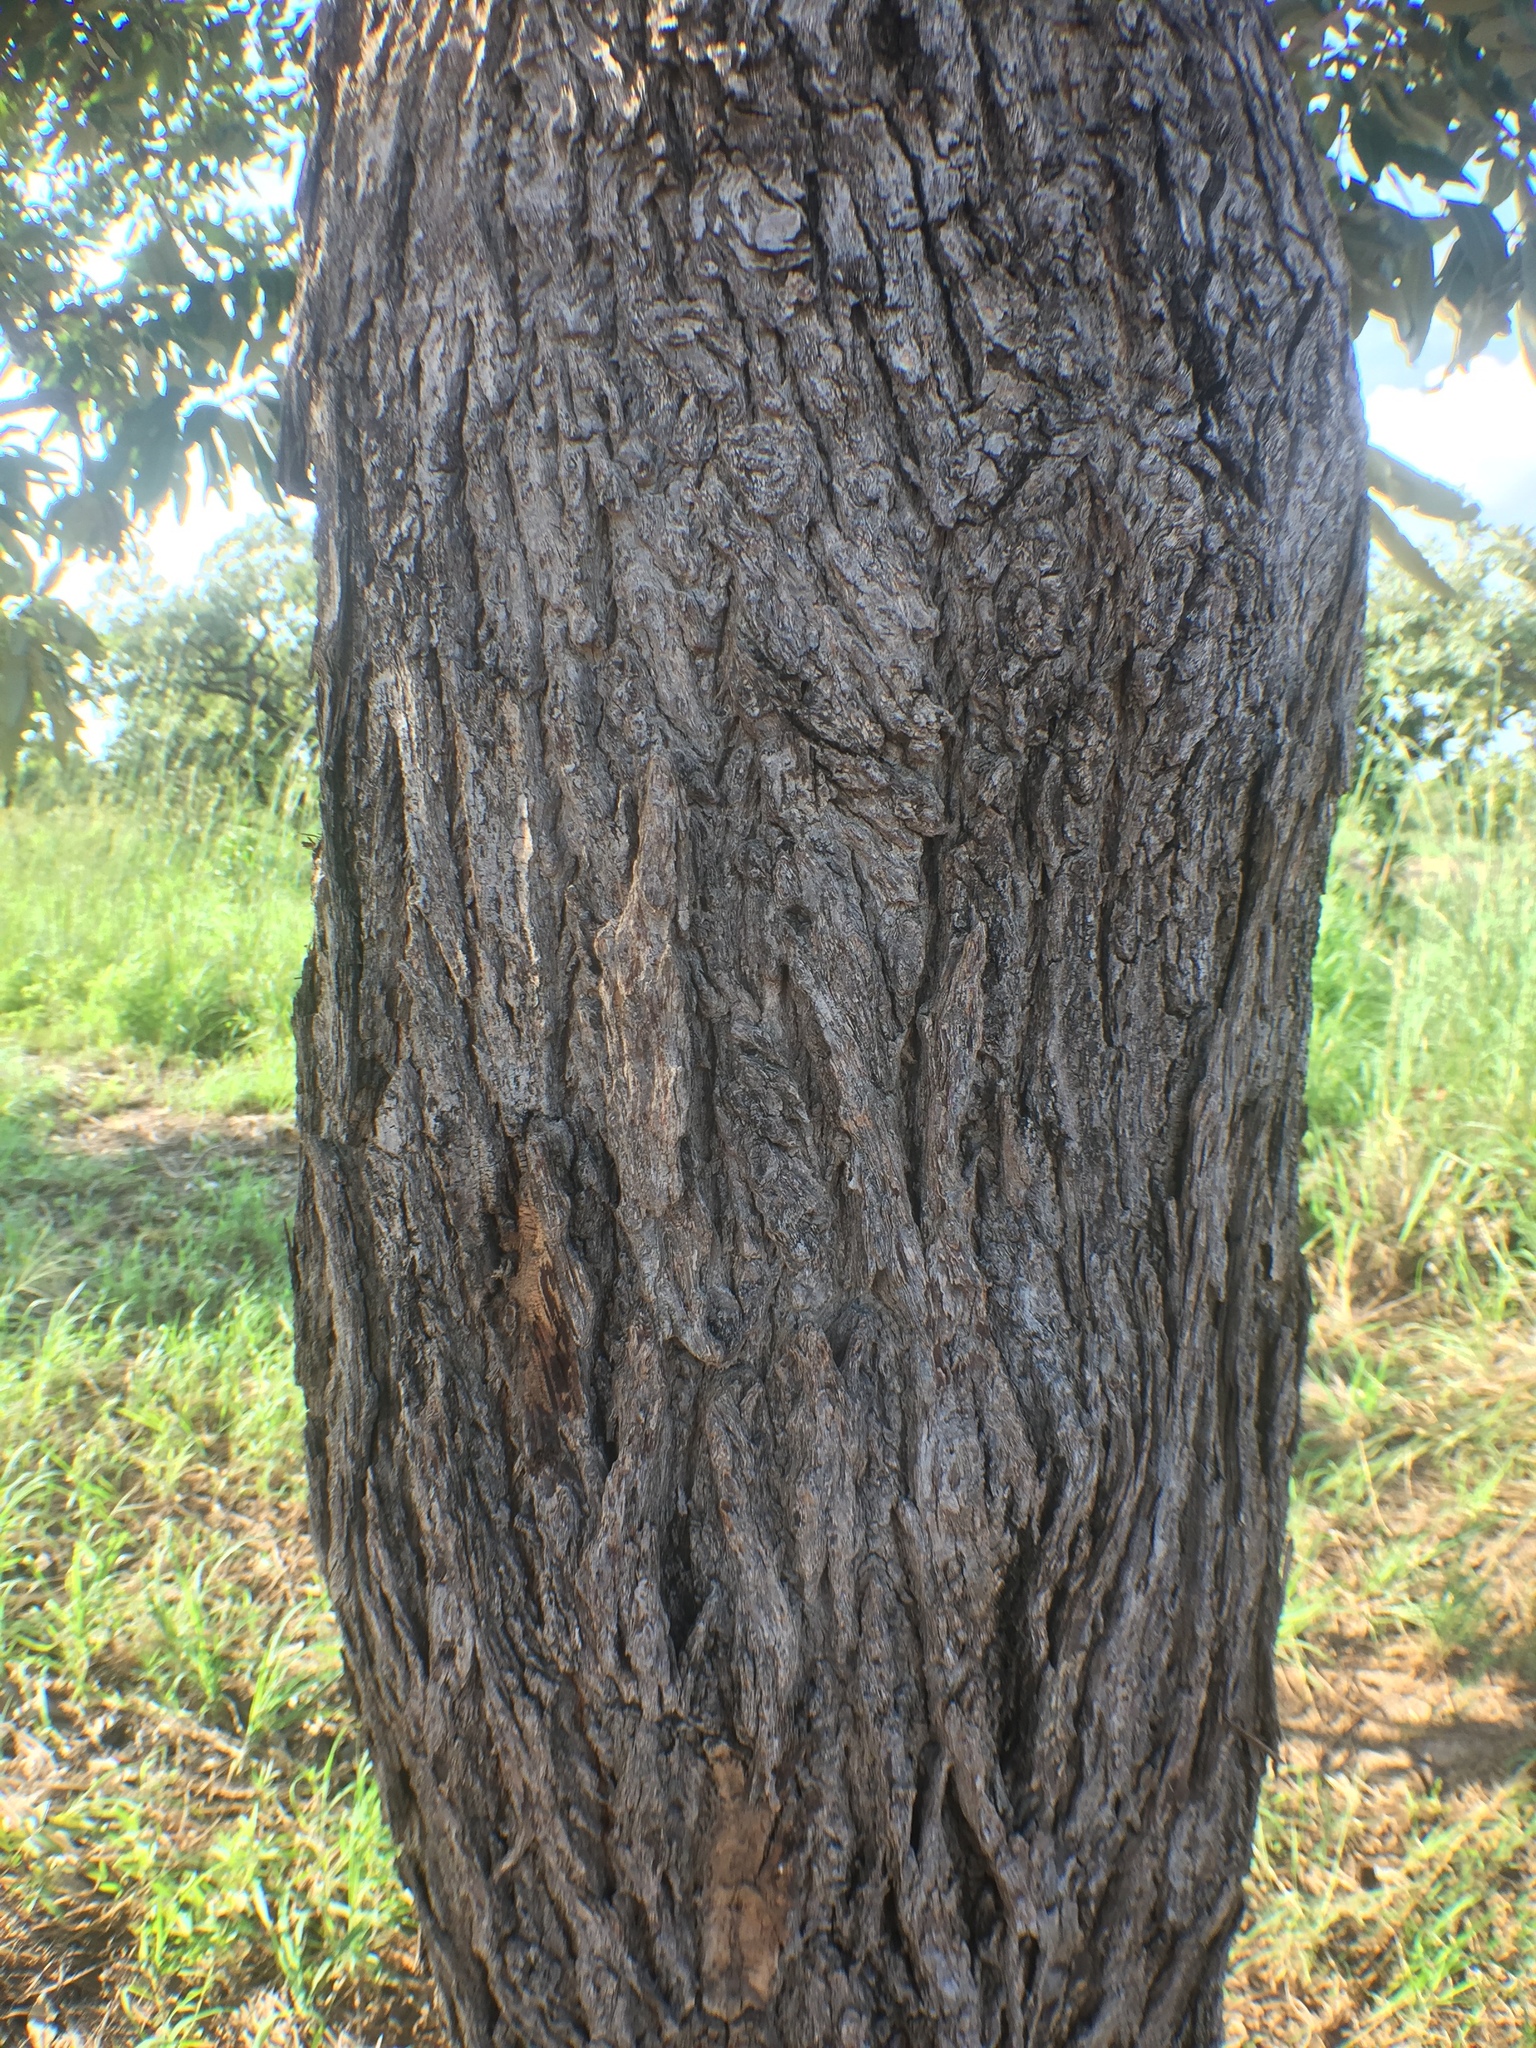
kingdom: Plantae
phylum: Tracheophyta
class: Magnoliopsida
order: Myrtales
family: Combretaceae
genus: Terminalia
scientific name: Terminalia macroptera
